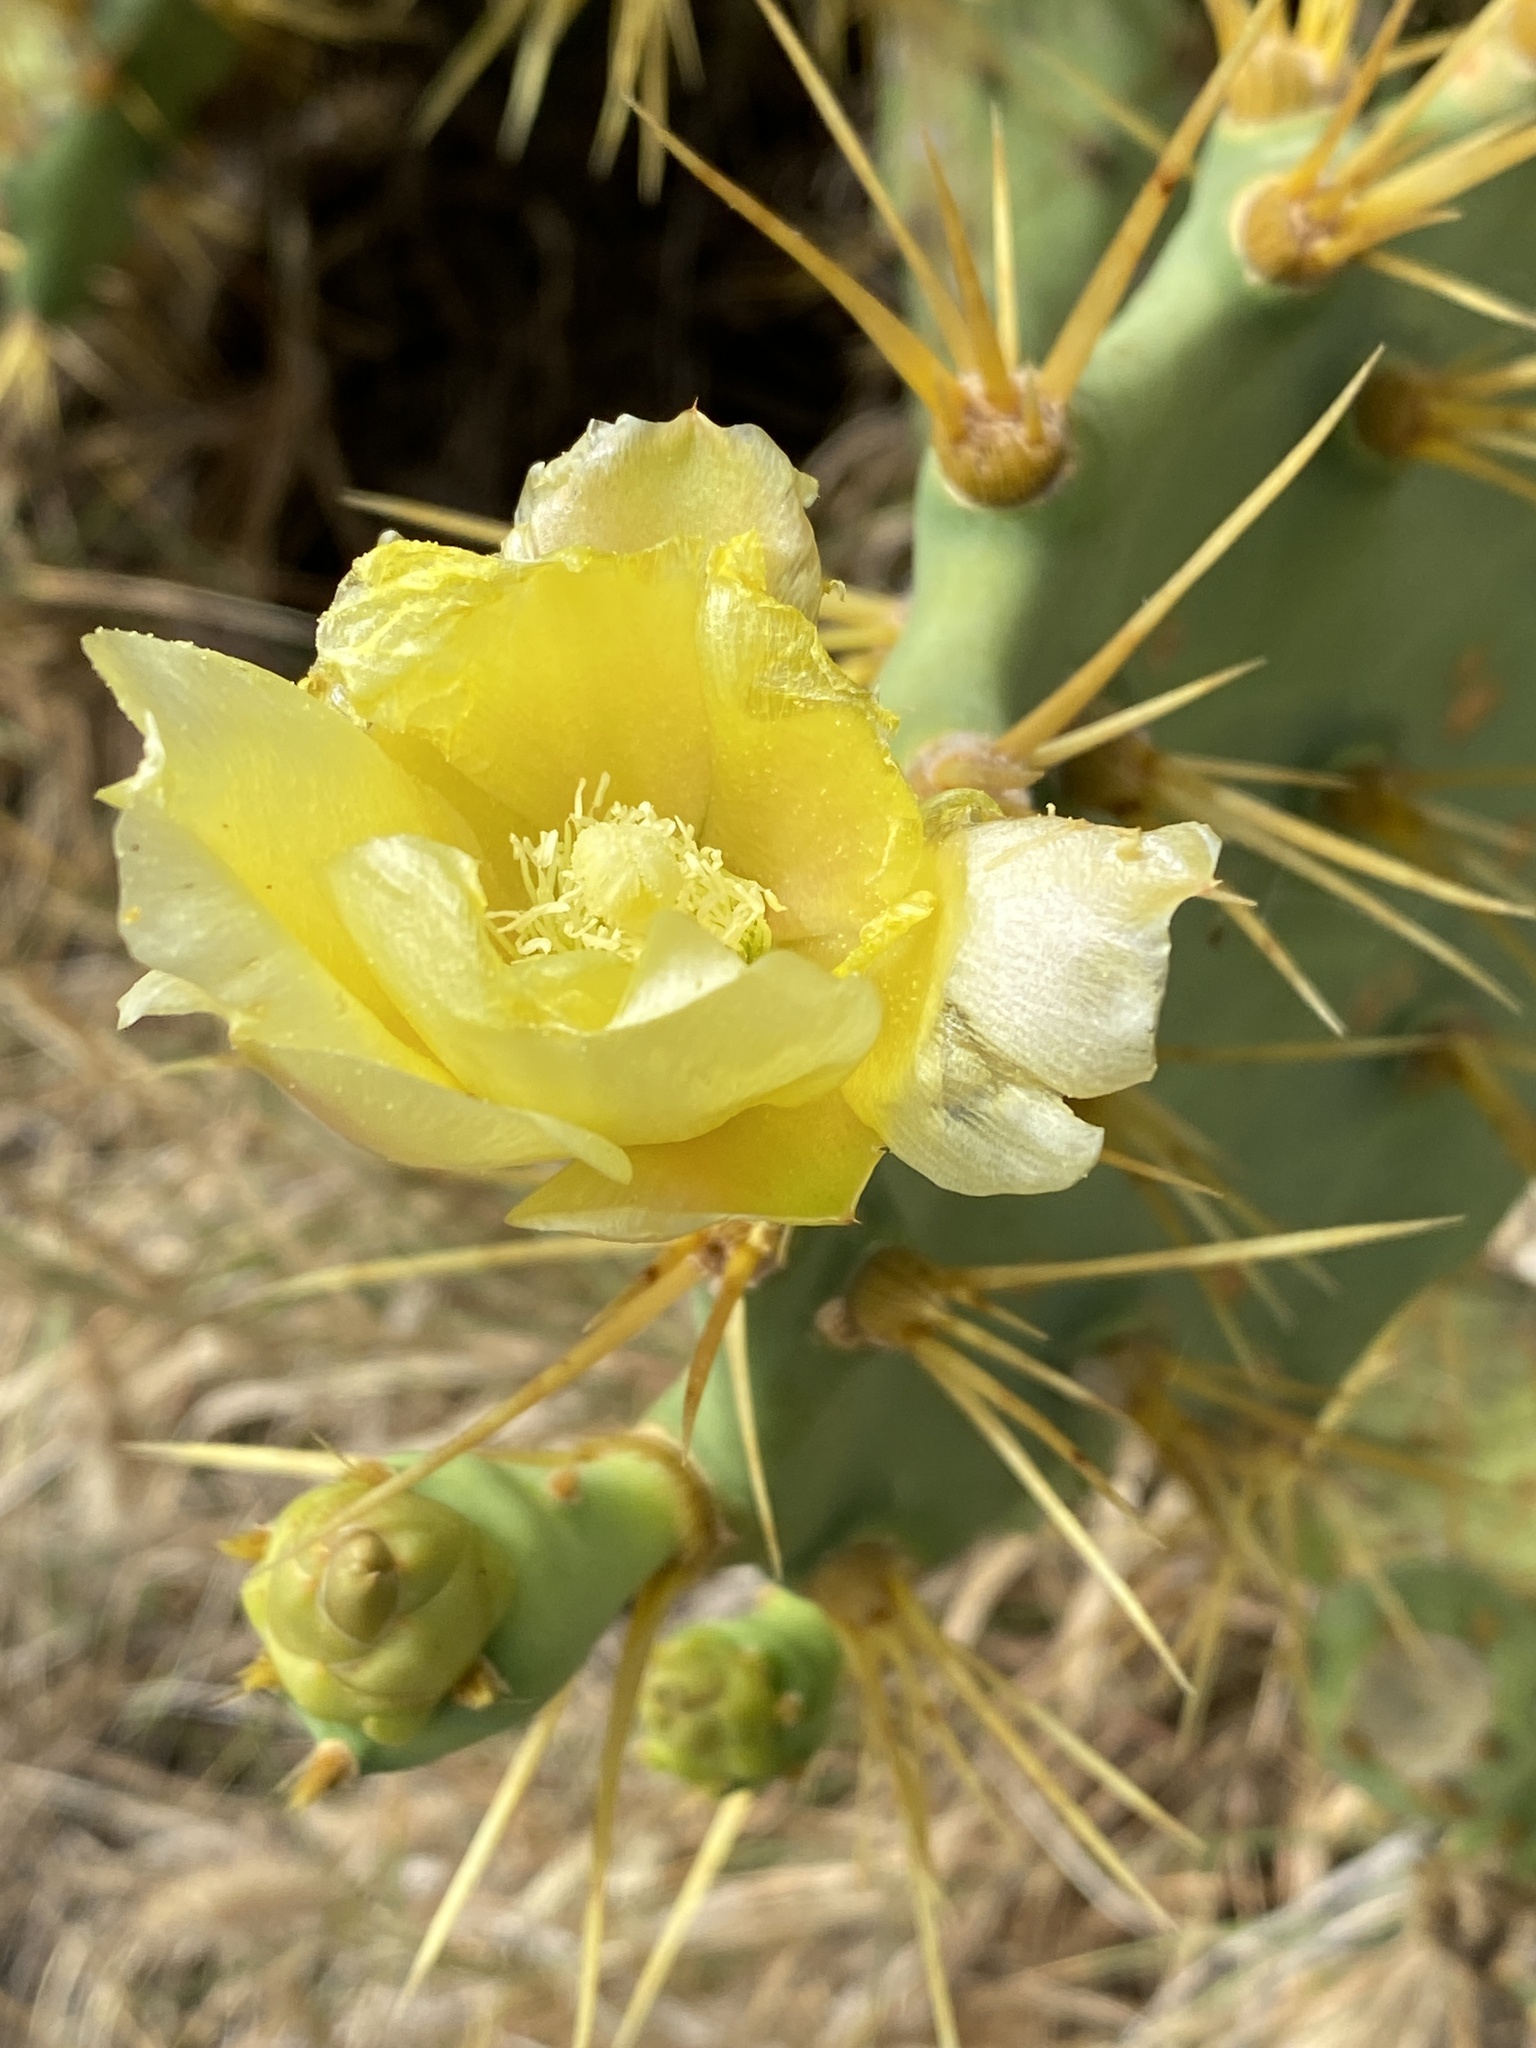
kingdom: Plantae
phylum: Tracheophyta
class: Magnoliopsida
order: Caryophyllales
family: Cactaceae
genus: Opuntia
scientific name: Opuntia stricta
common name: Erect pricklypear
